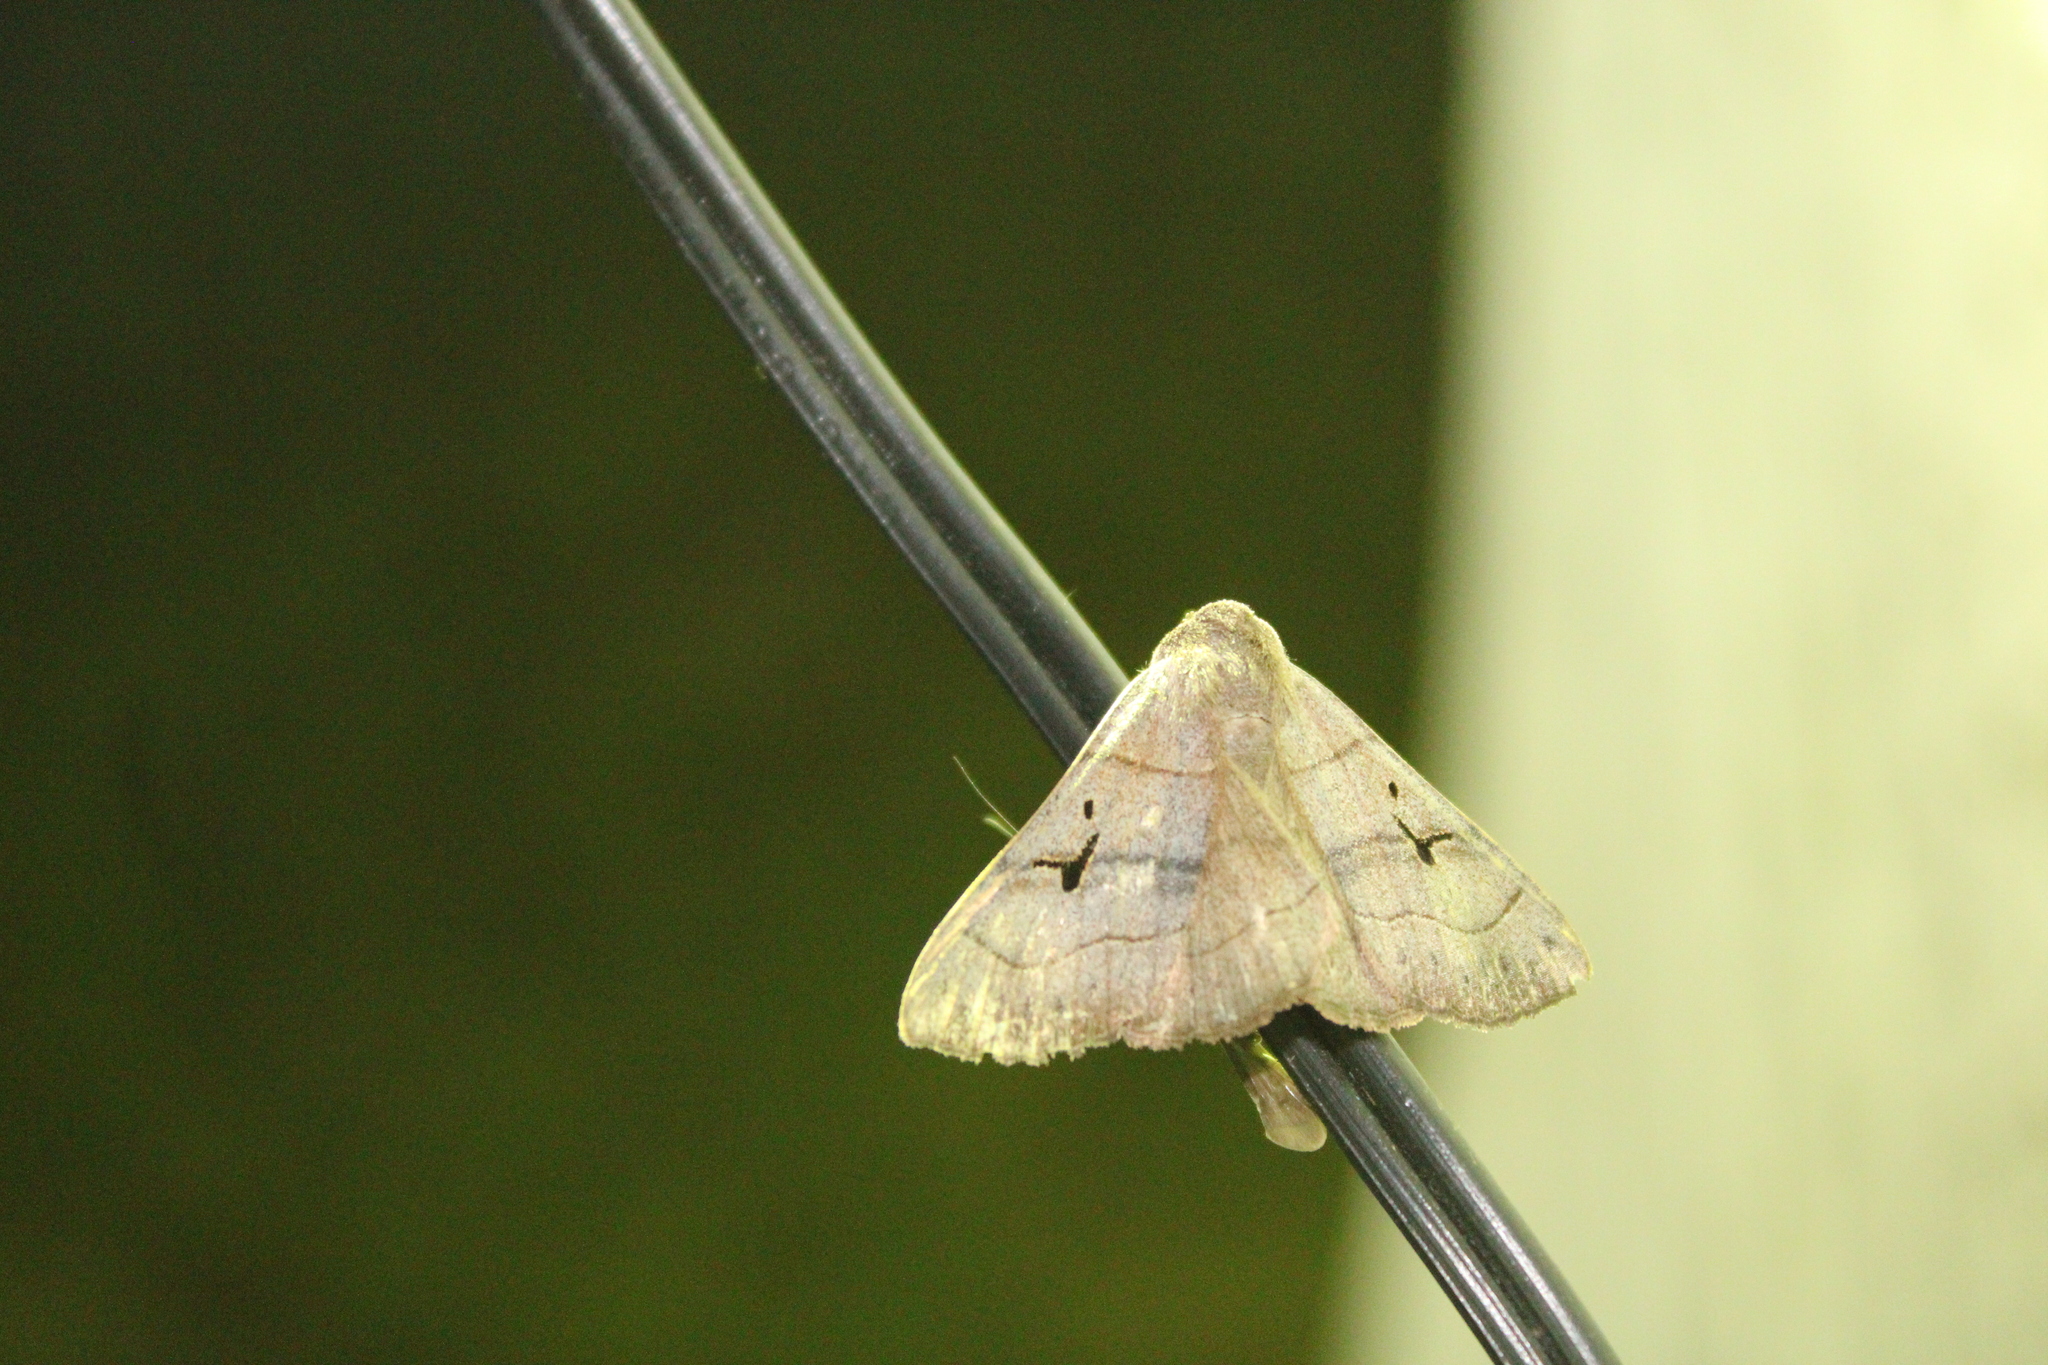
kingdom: Animalia
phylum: Arthropoda
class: Insecta
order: Lepidoptera
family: Erebidae
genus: Panopoda
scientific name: Panopoda carneicosta
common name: Brown panopoda moth
